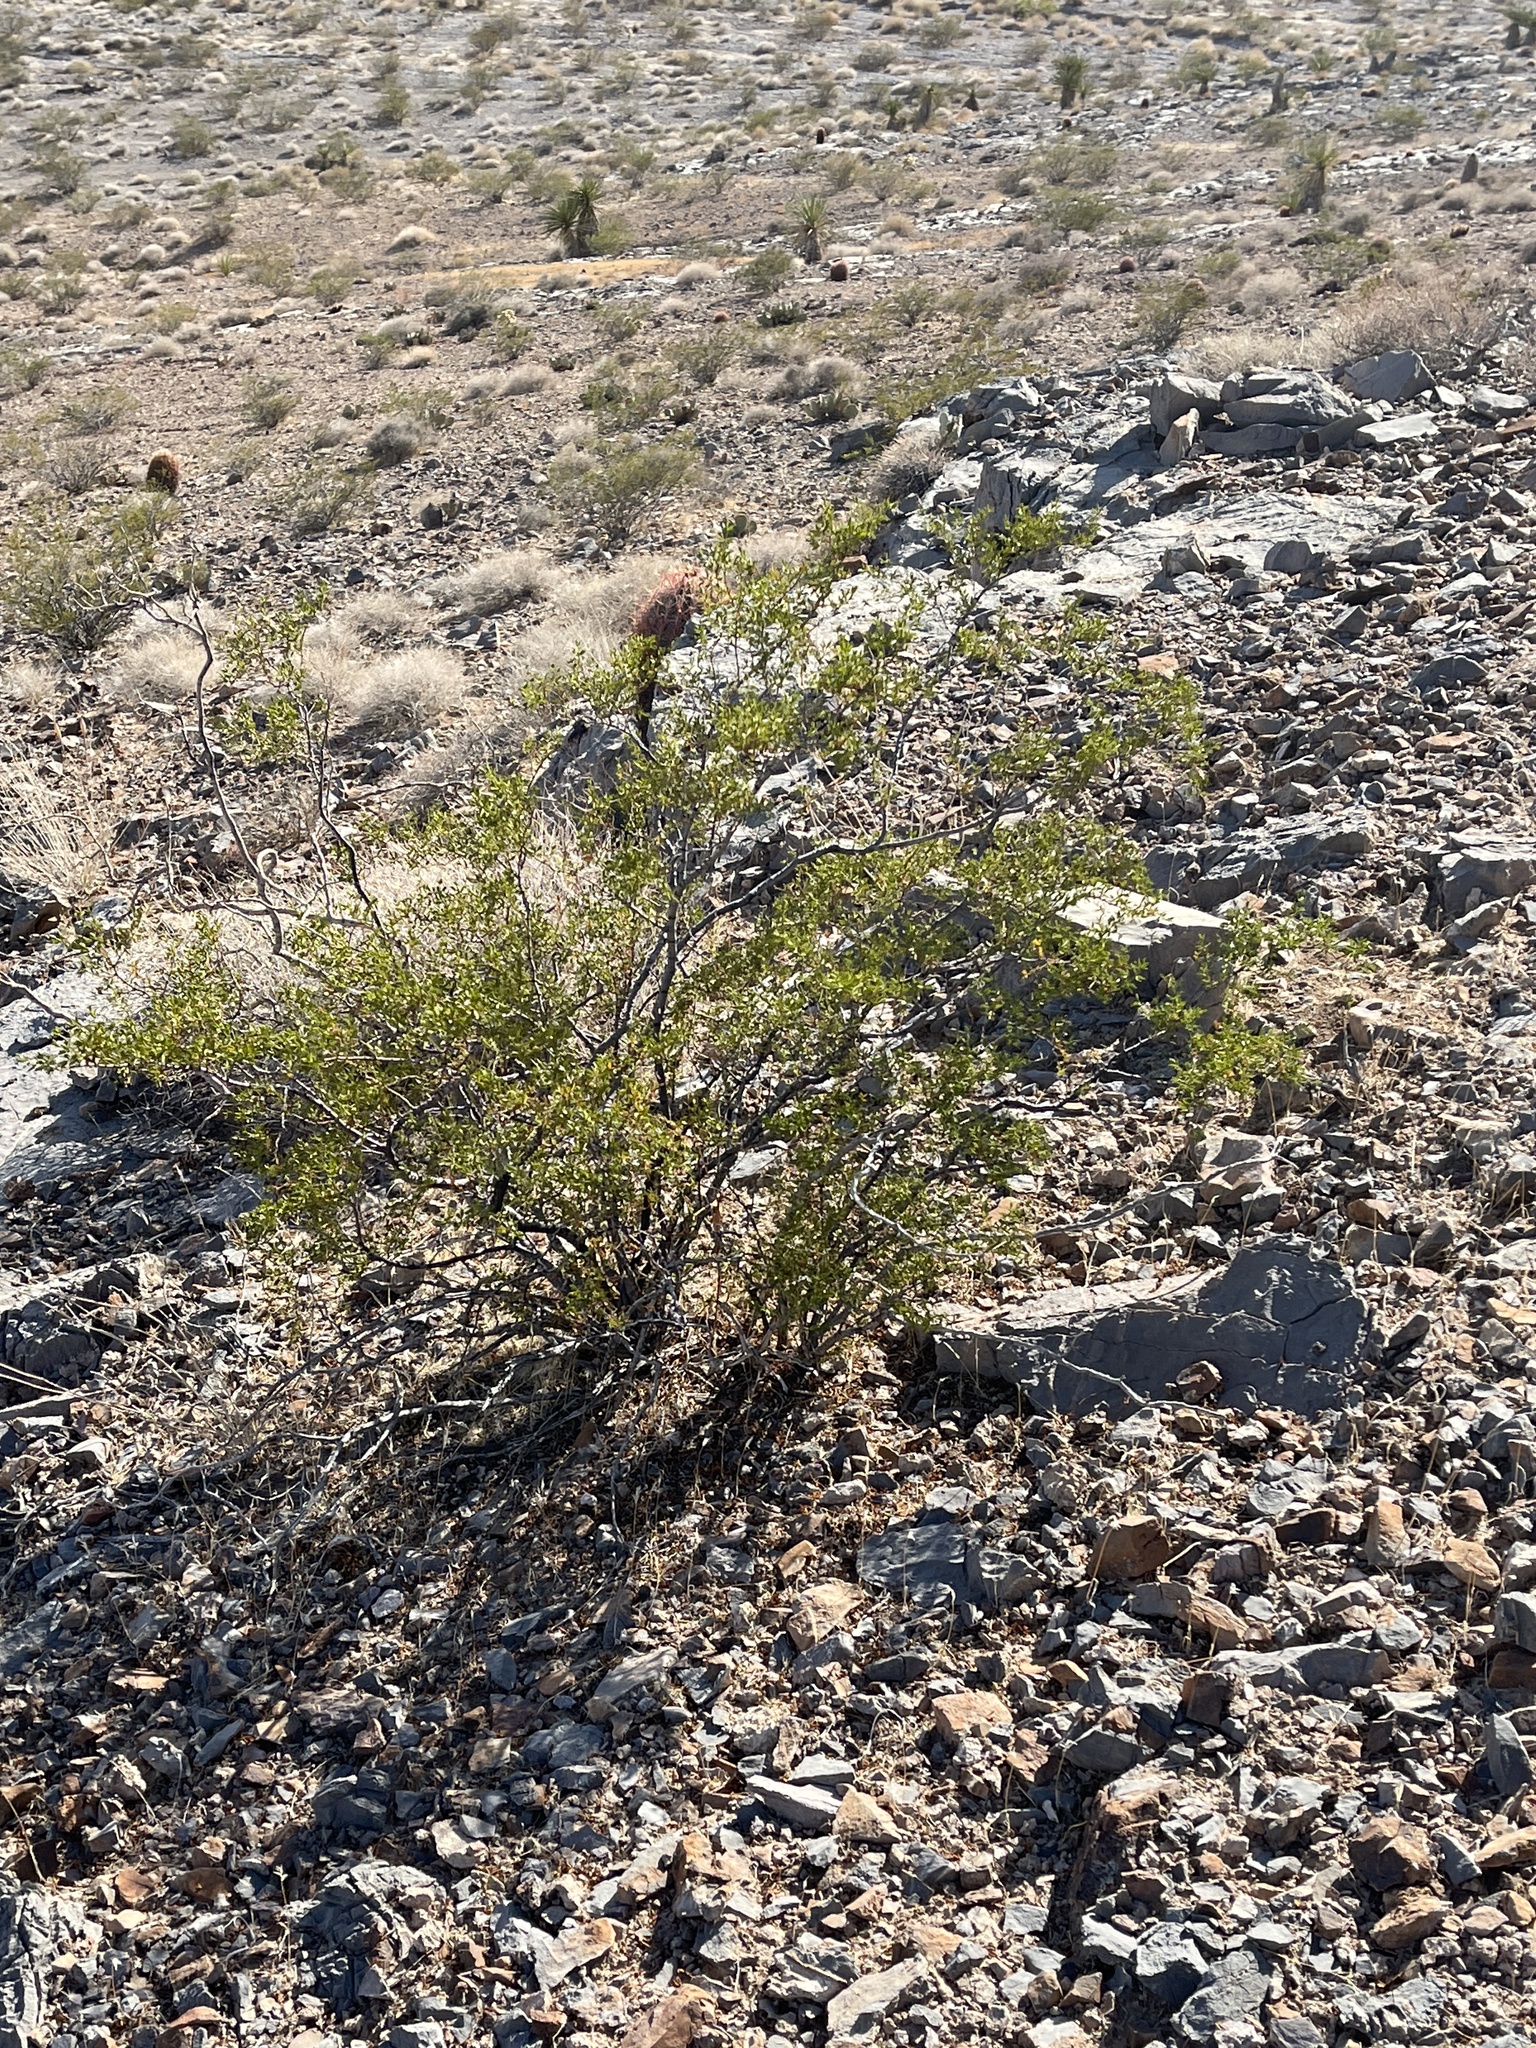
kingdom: Plantae
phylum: Tracheophyta
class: Magnoliopsida
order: Zygophyllales
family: Zygophyllaceae
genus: Larrea
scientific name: Larrea tridentata
